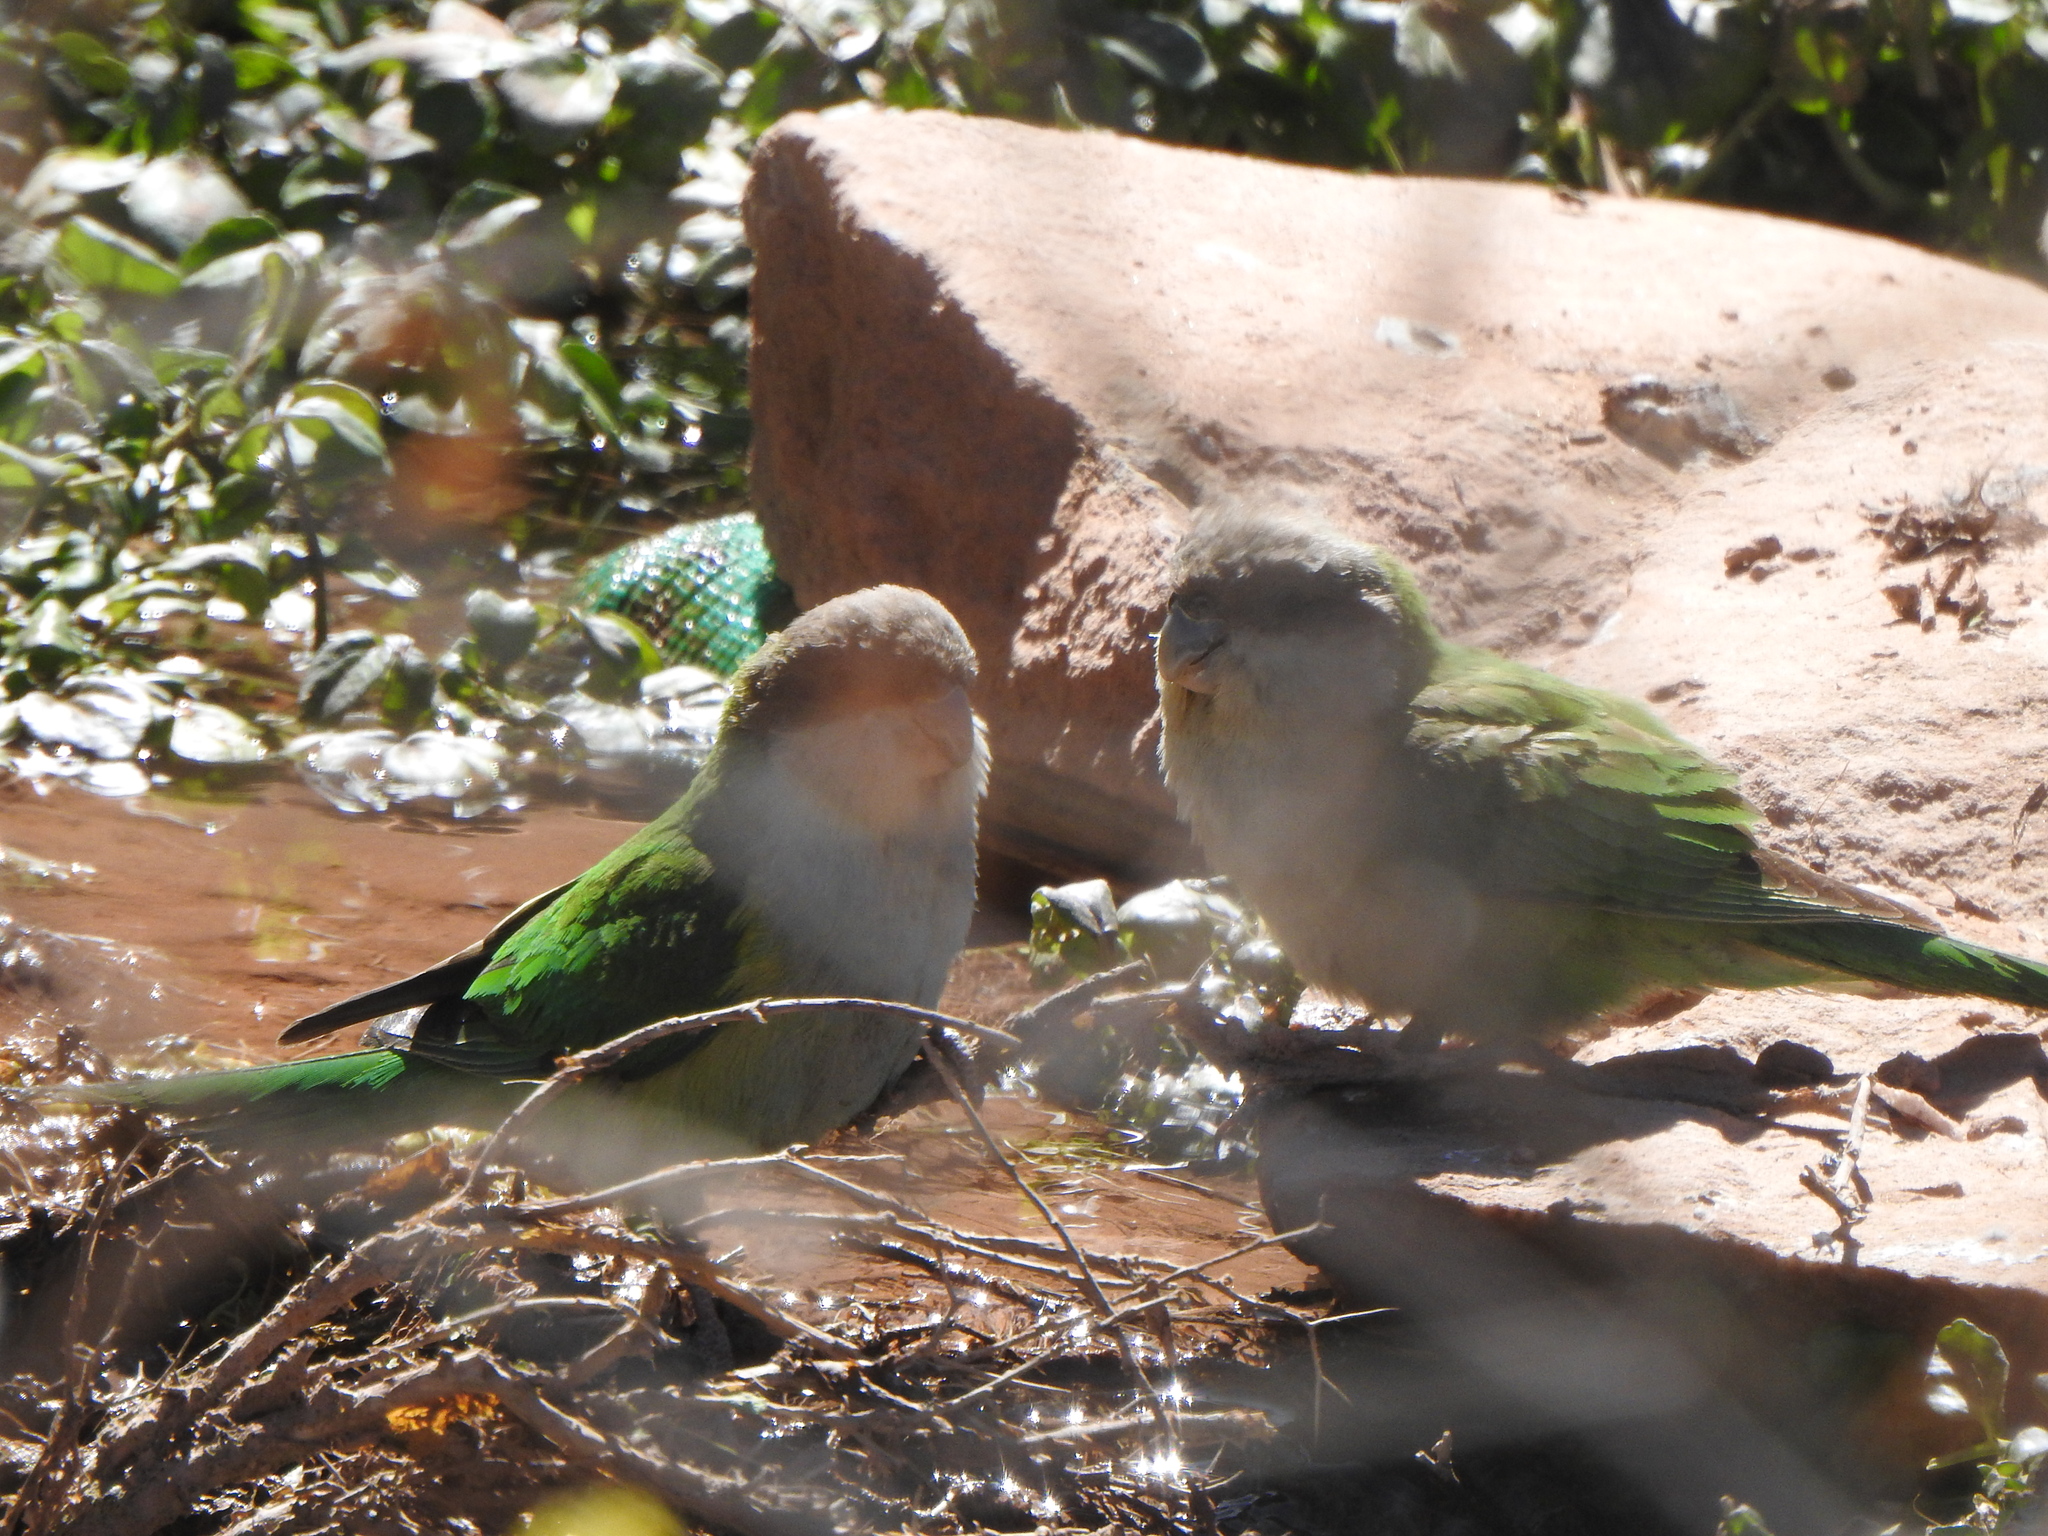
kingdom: Animalia
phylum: Chordata
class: Aves
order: Psittaciformes
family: Psittacidae
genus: Psilopsiagon
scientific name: Psilopsiagon aymara
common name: Grey-hooded parakeet
